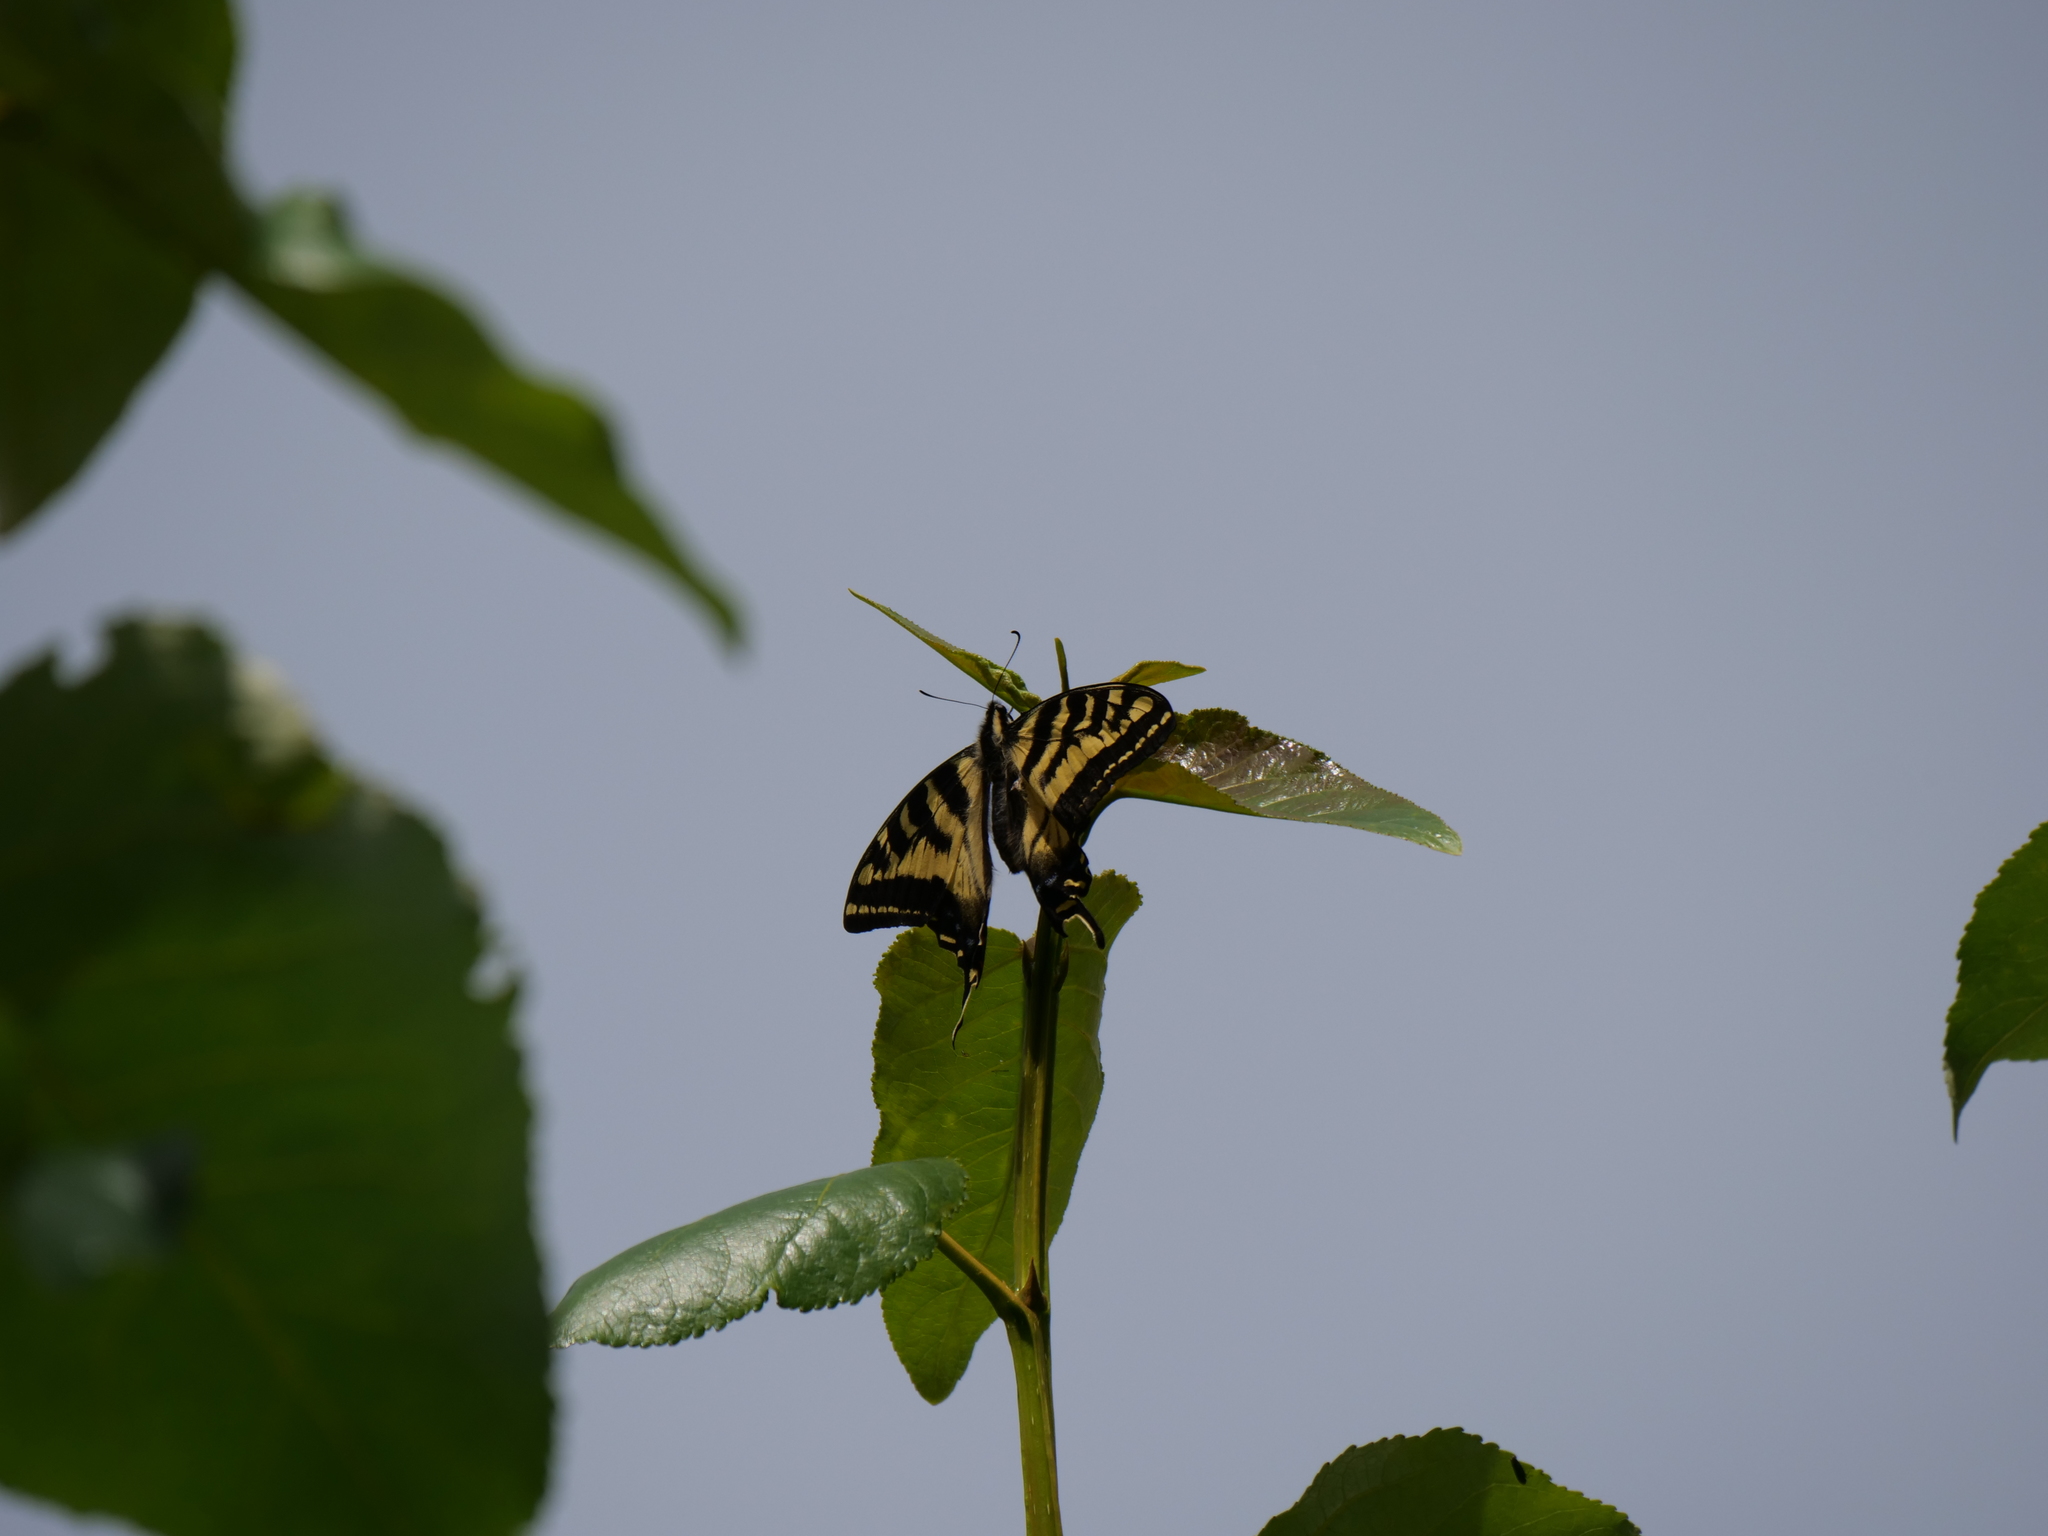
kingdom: Animalia
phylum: Arthropoda
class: Insecta
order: Lepidoptera
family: Papilionidae
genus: Papilio
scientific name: Papilio rutulus
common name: Western tiger swallowtail
